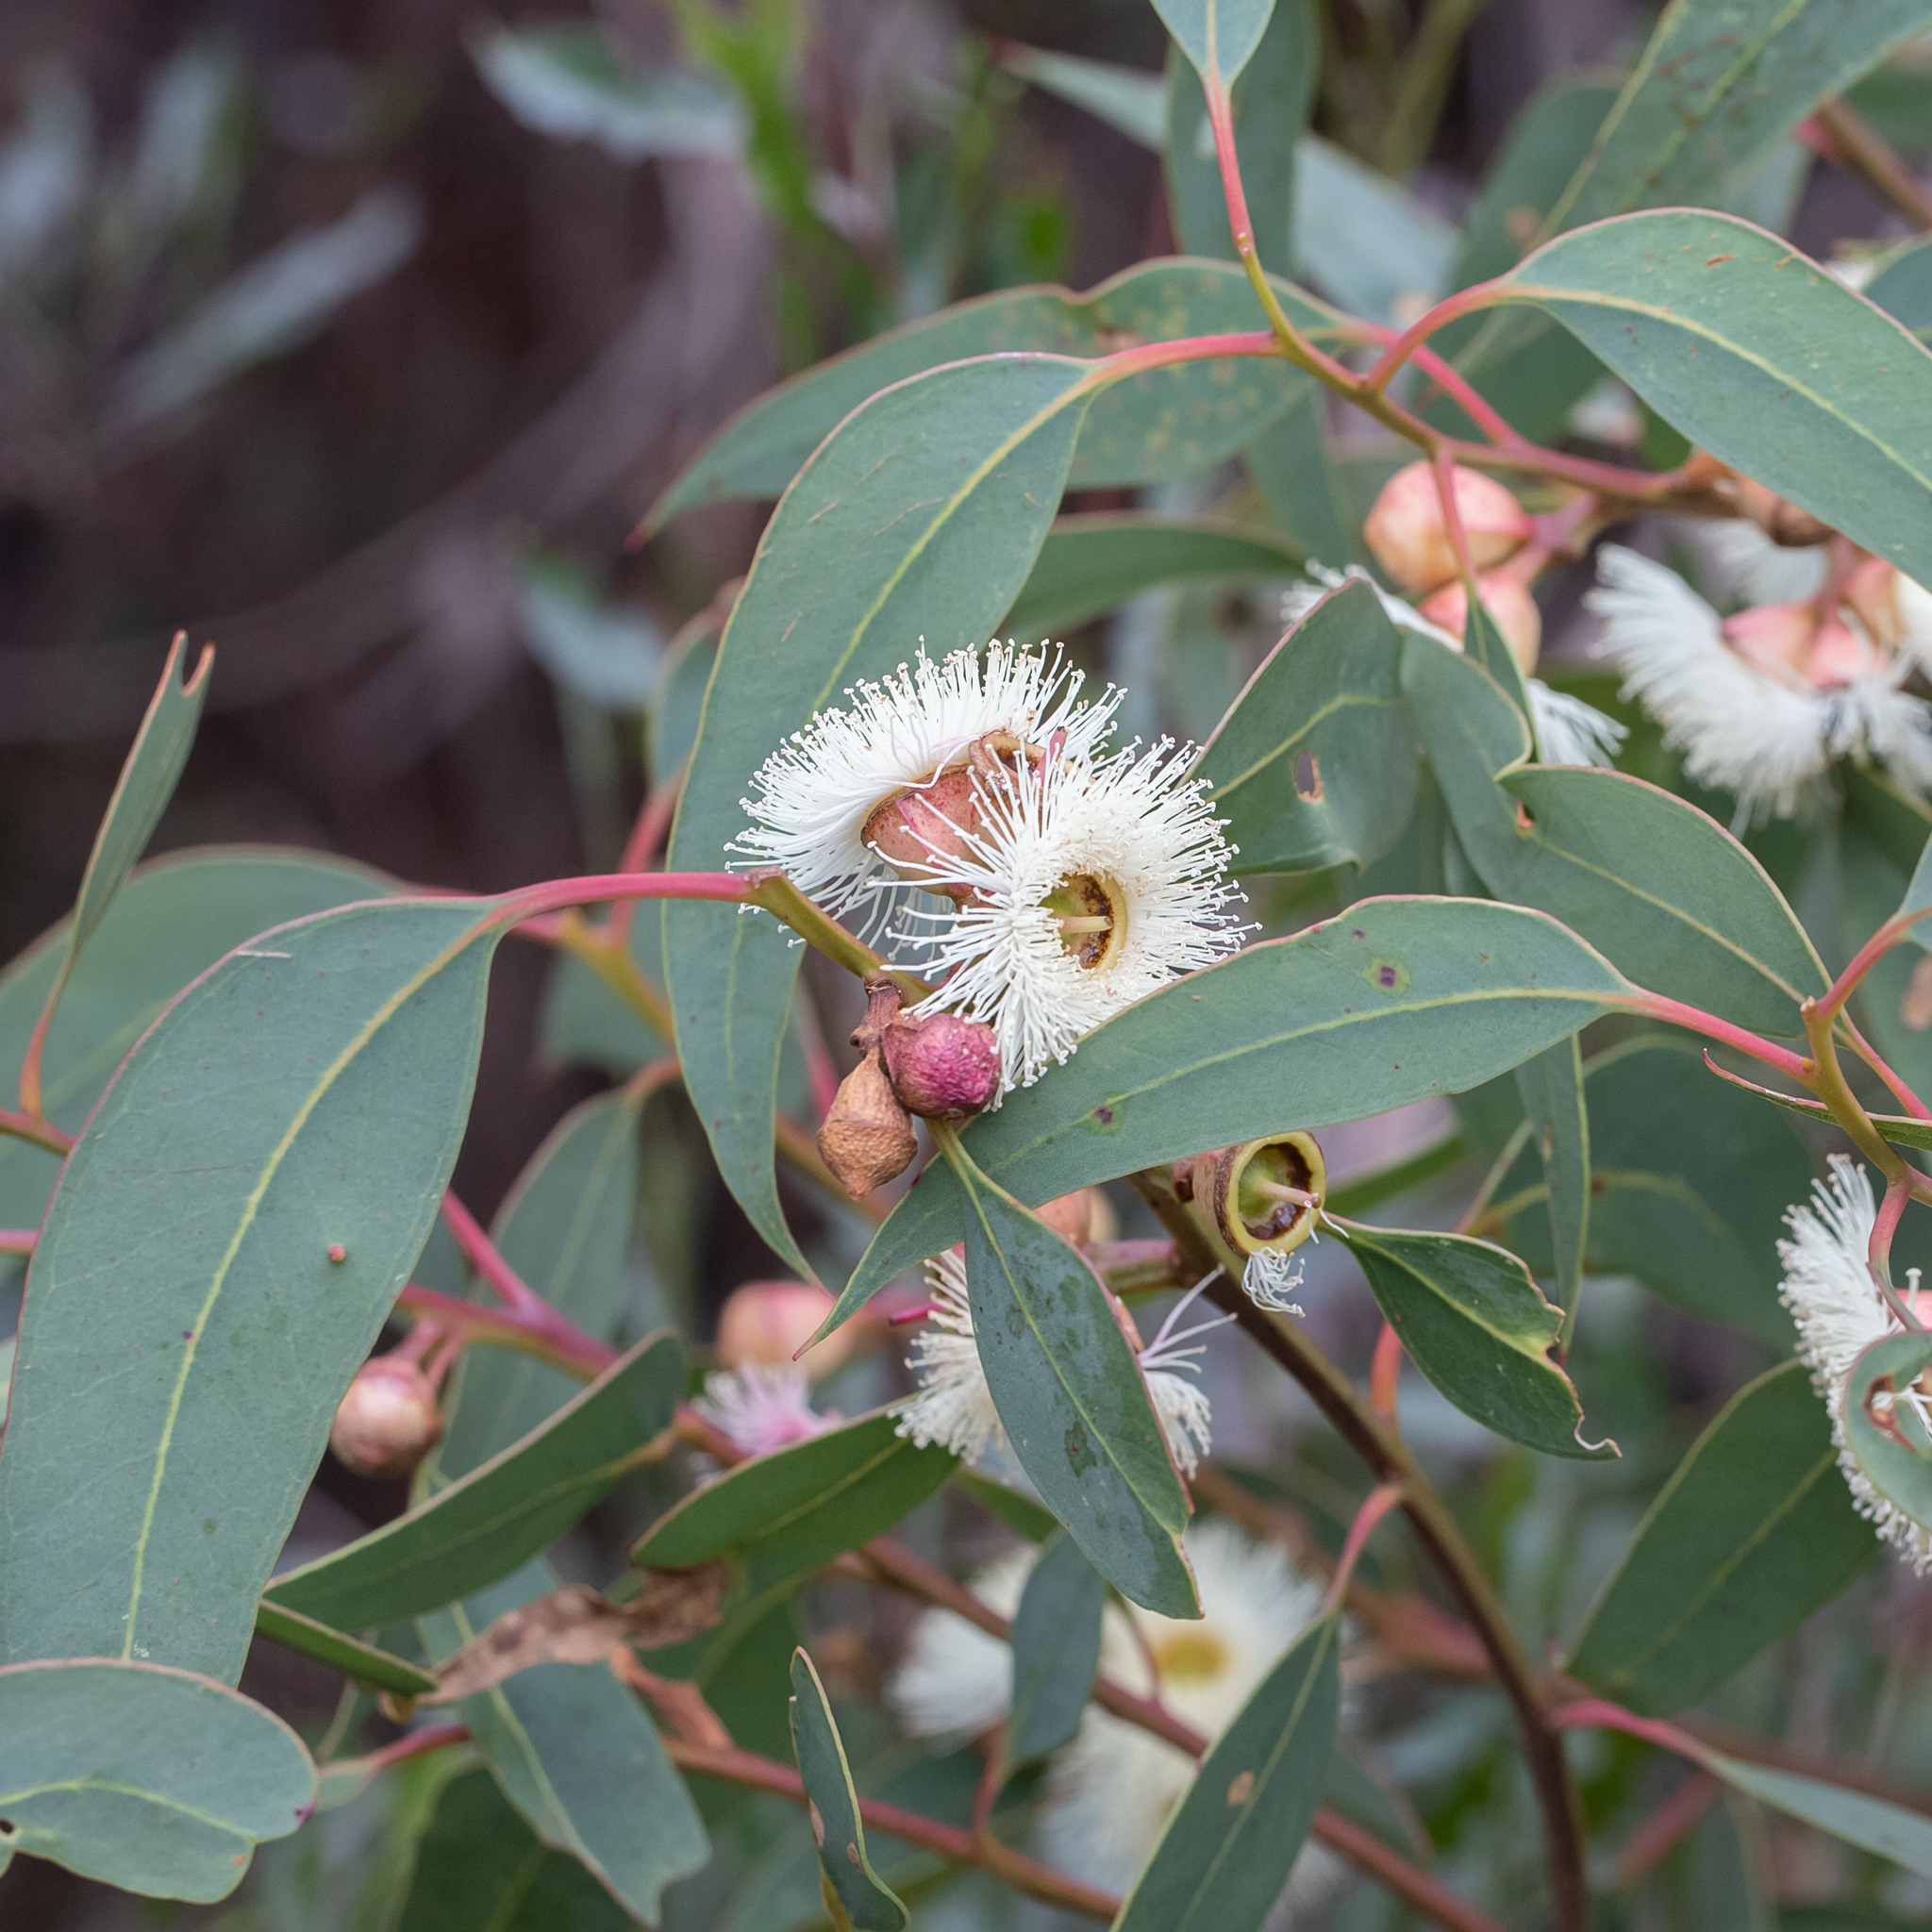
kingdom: Plantae
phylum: Tracheophyta
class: Magnoliopsida
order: Myrtales
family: Myrtaceae
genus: Eucalyptus
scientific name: Eucalyptus cosmophylla
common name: Bog-gum
